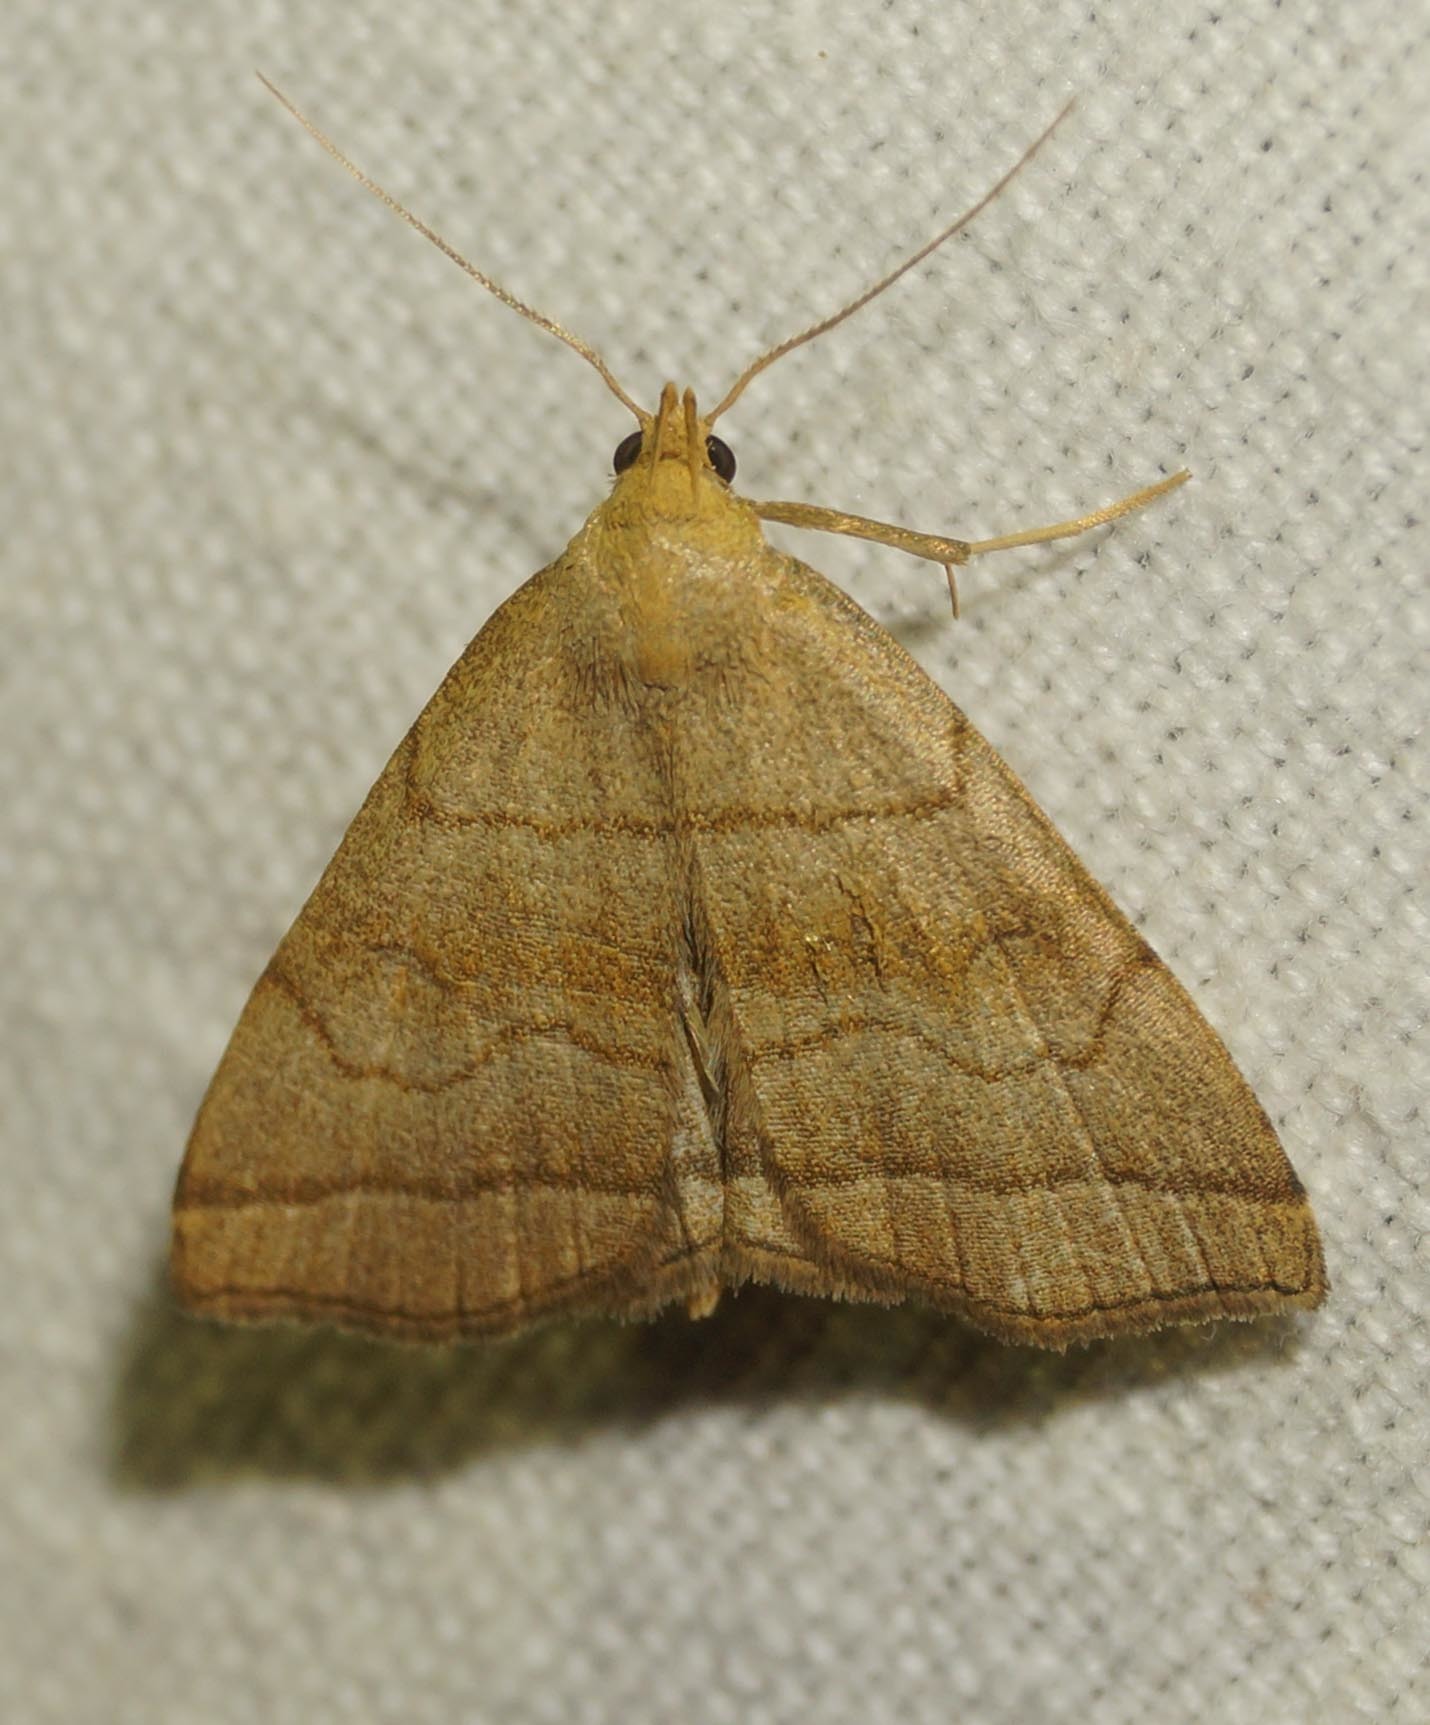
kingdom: Animalia
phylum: Arthropoda
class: Insecta
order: Lepidoptera
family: Erebidae
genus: Herminia
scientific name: Herminia tarsicrinalis
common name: Shaded fan-foot
